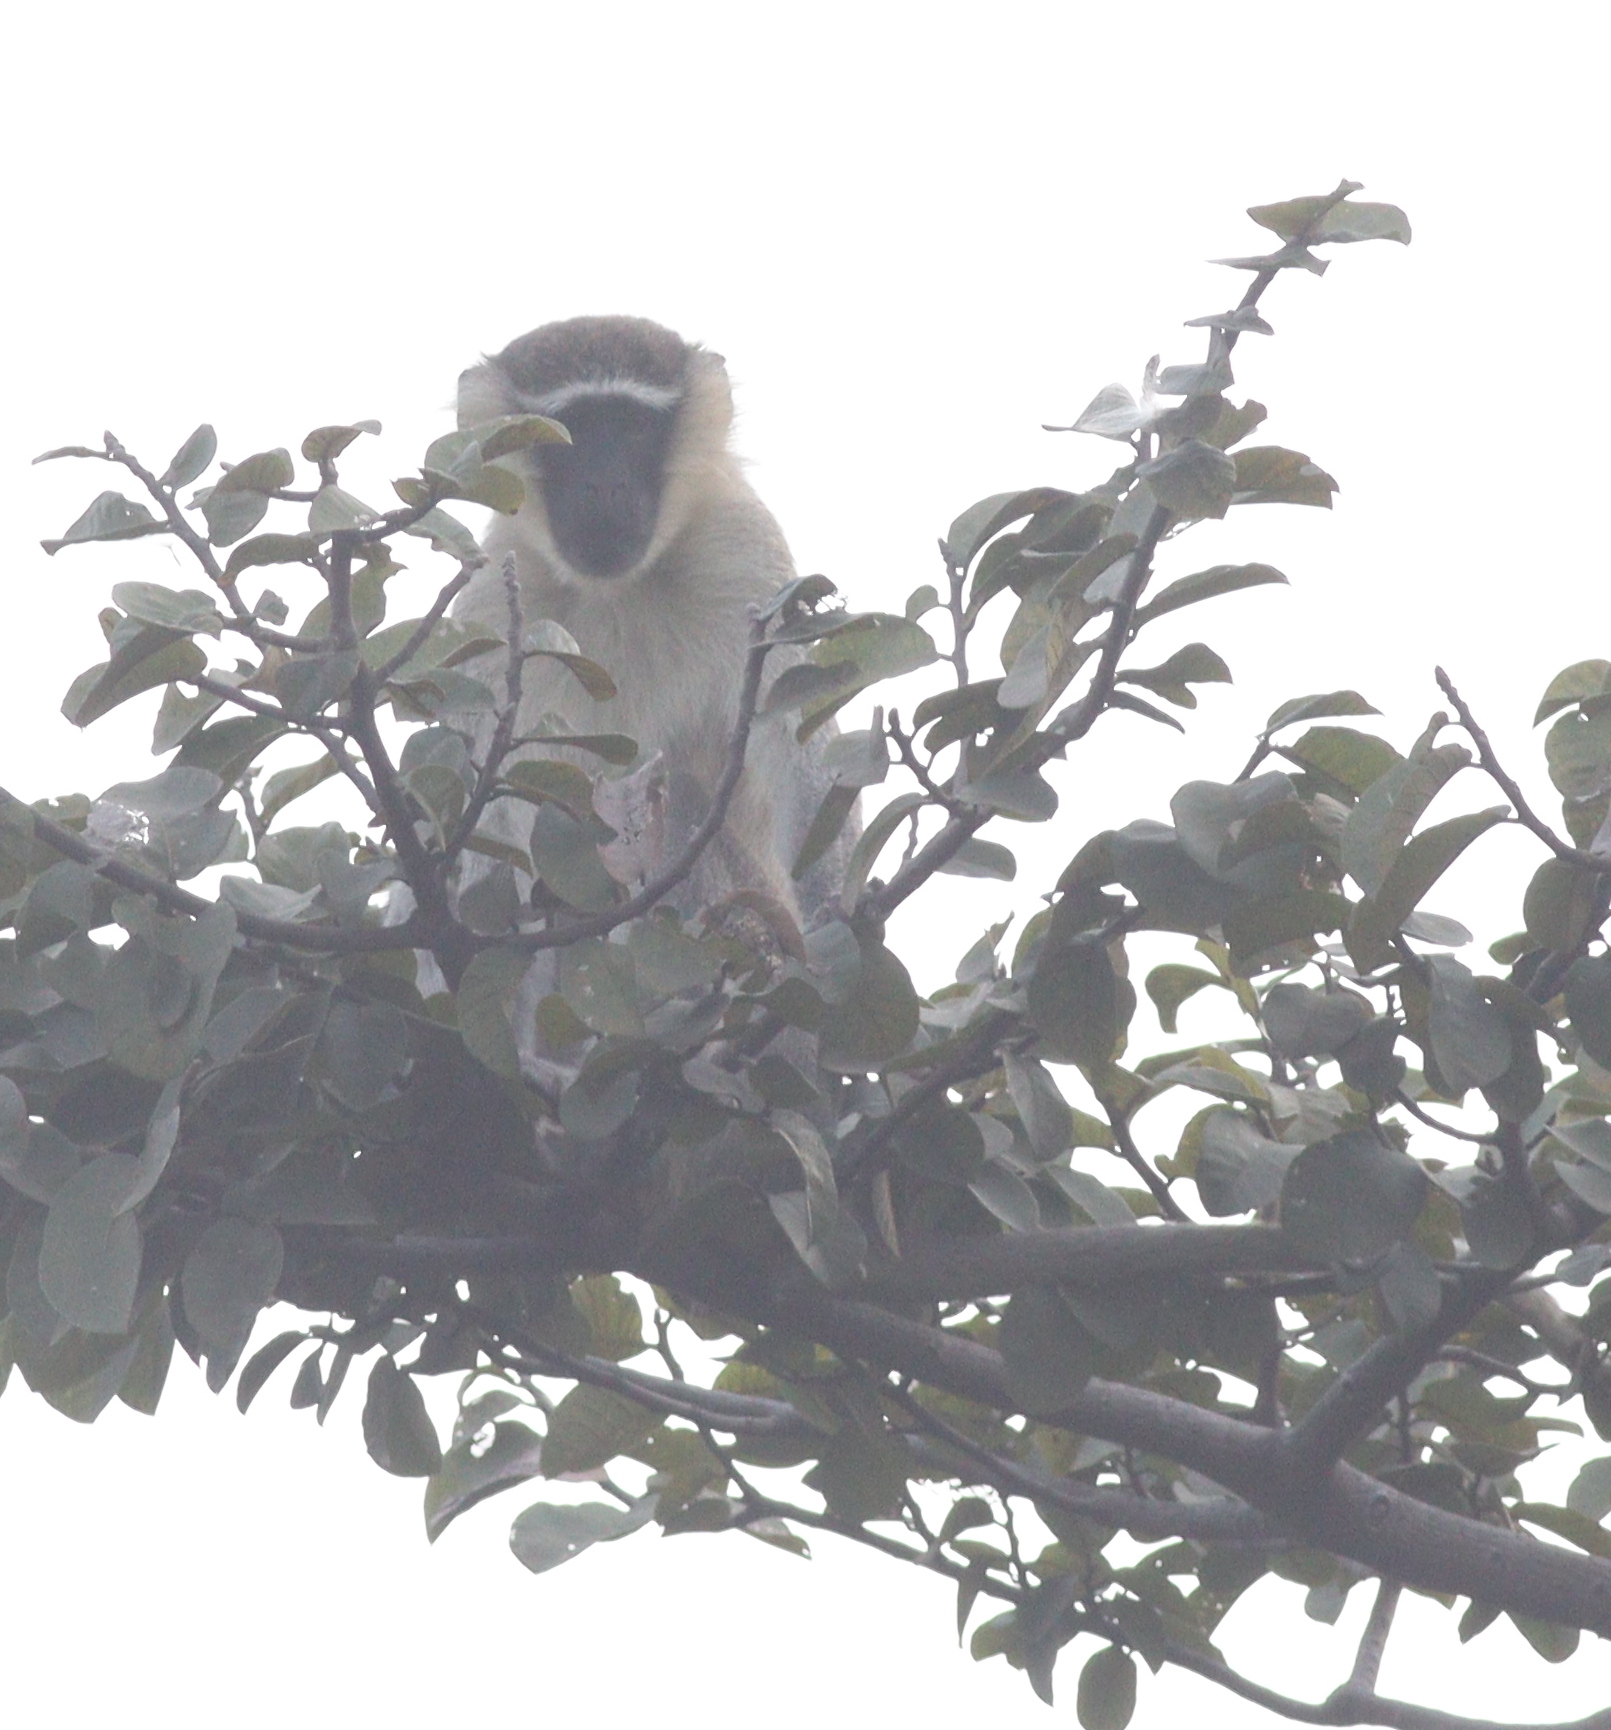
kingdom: Animalia
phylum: Chordata
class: Mammalia
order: Primates
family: Cercopithecidae
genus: Chlorocebus
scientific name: Chlorocebus tantalus
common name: Tantalus monkey
